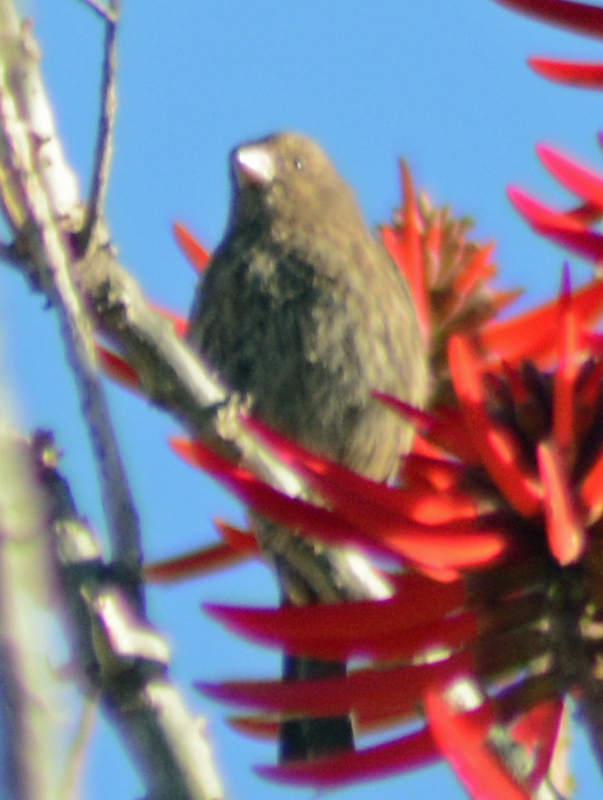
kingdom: Animalia
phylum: Chordata
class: Aves
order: Passeriformes
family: Fringillidae
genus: Haemorhous
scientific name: Haemorhous mexicanus
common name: House finch
